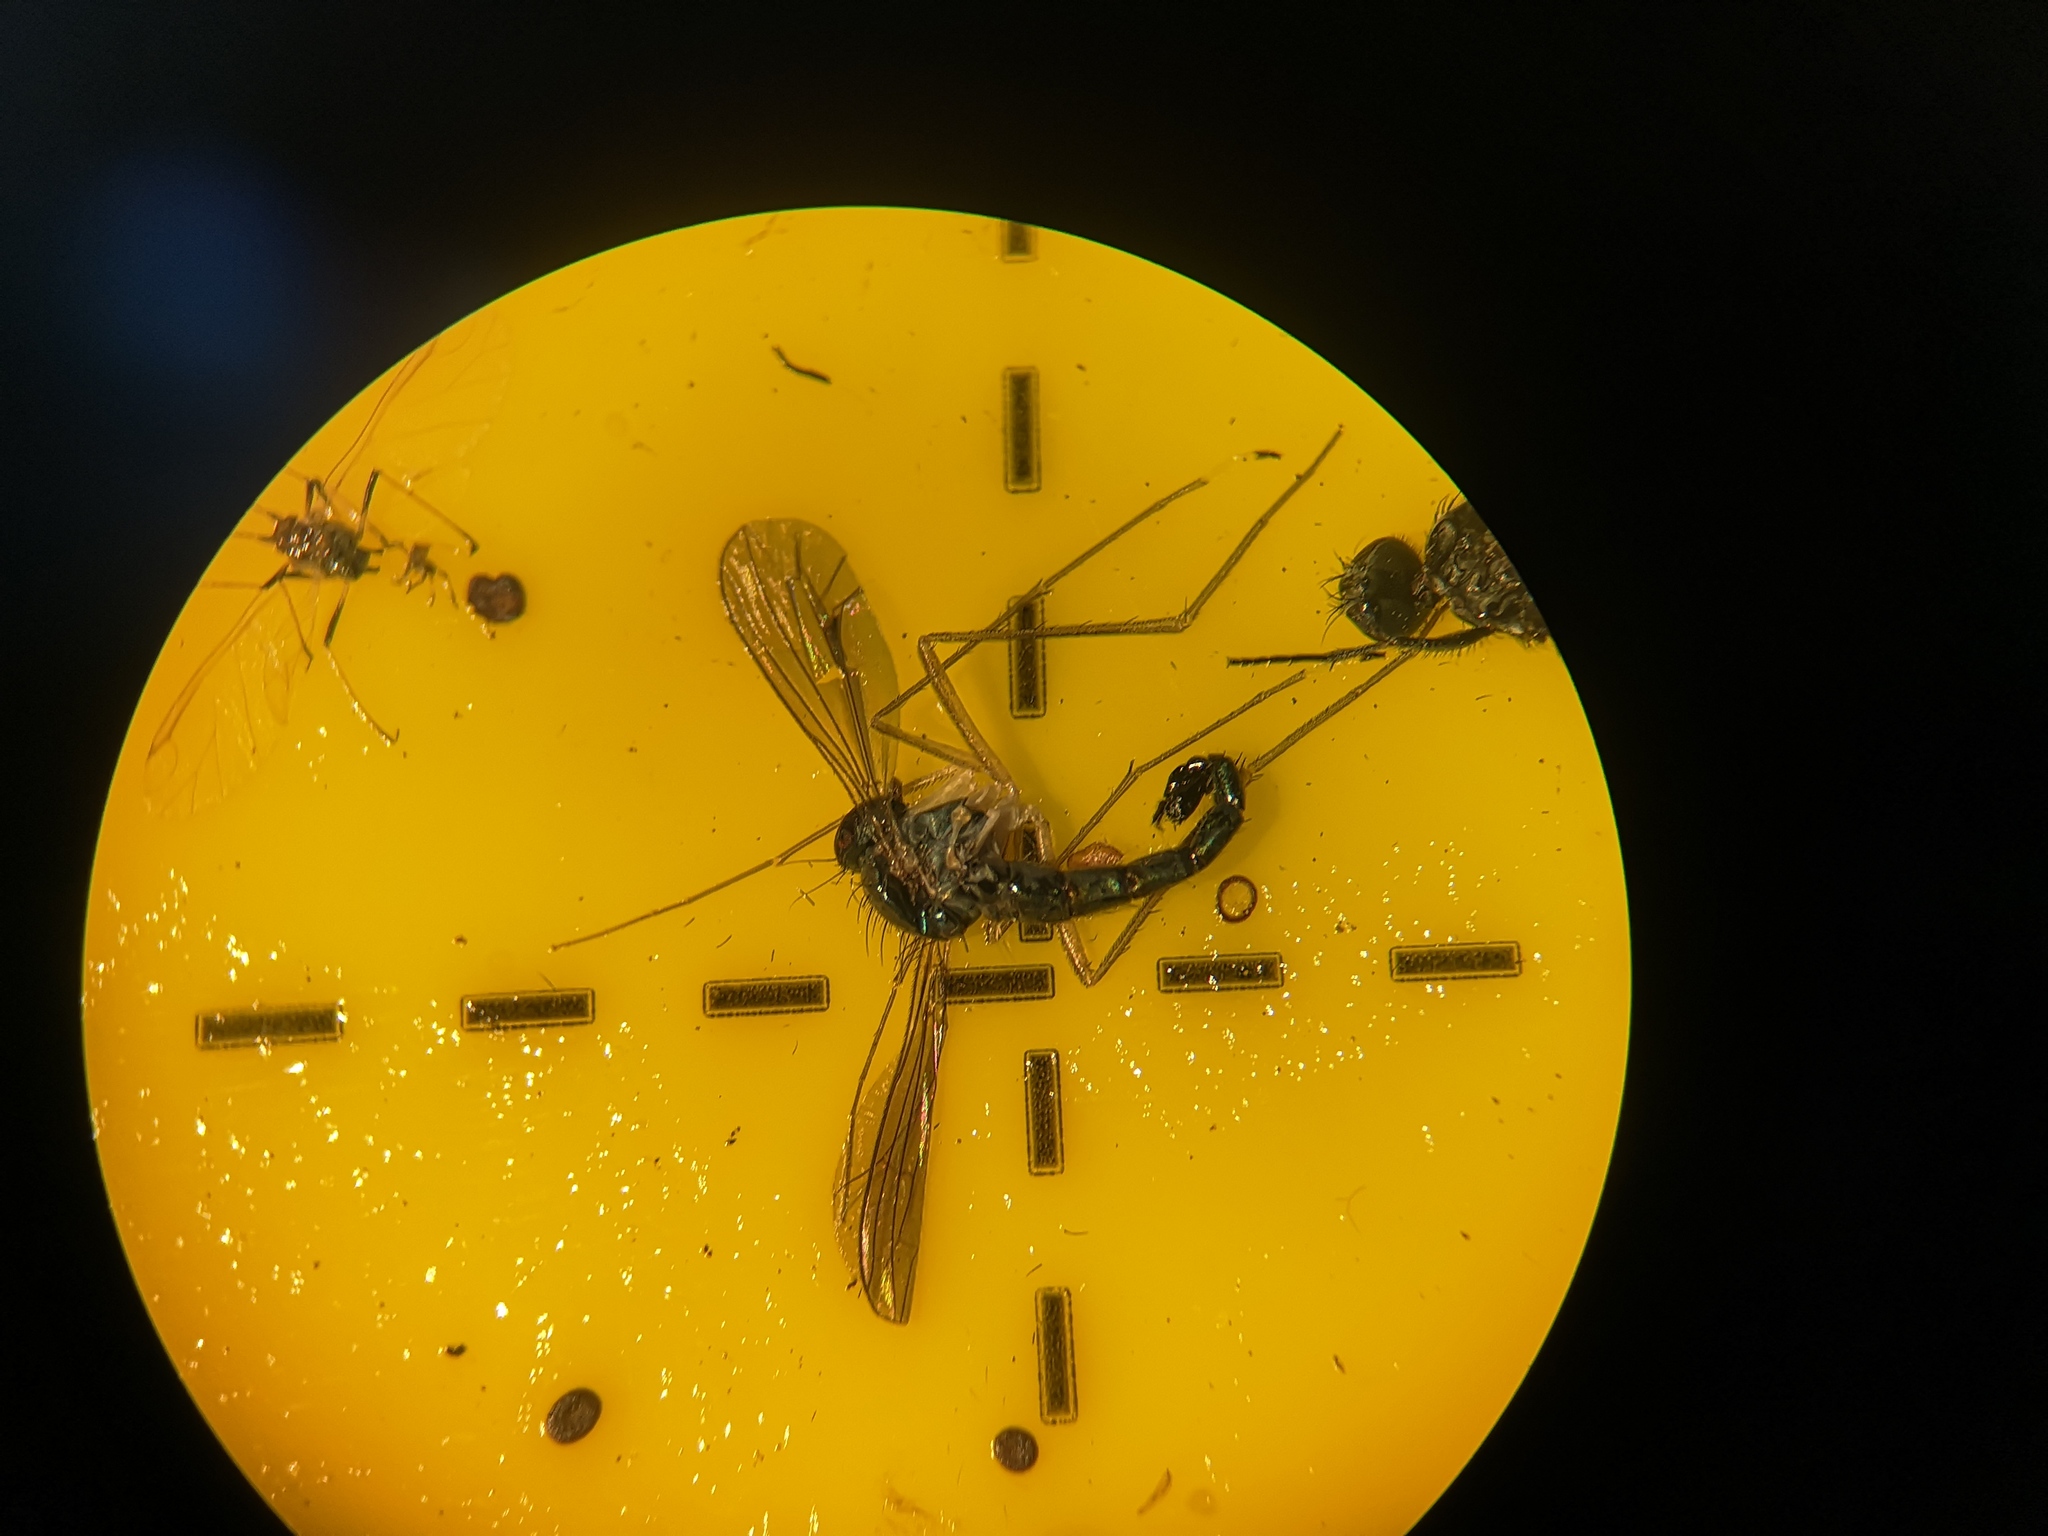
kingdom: Animalia
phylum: Arthropoda
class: Insecta
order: Diptera
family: Dolichopodidae
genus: Sciapus
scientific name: Sciapus platypterus
